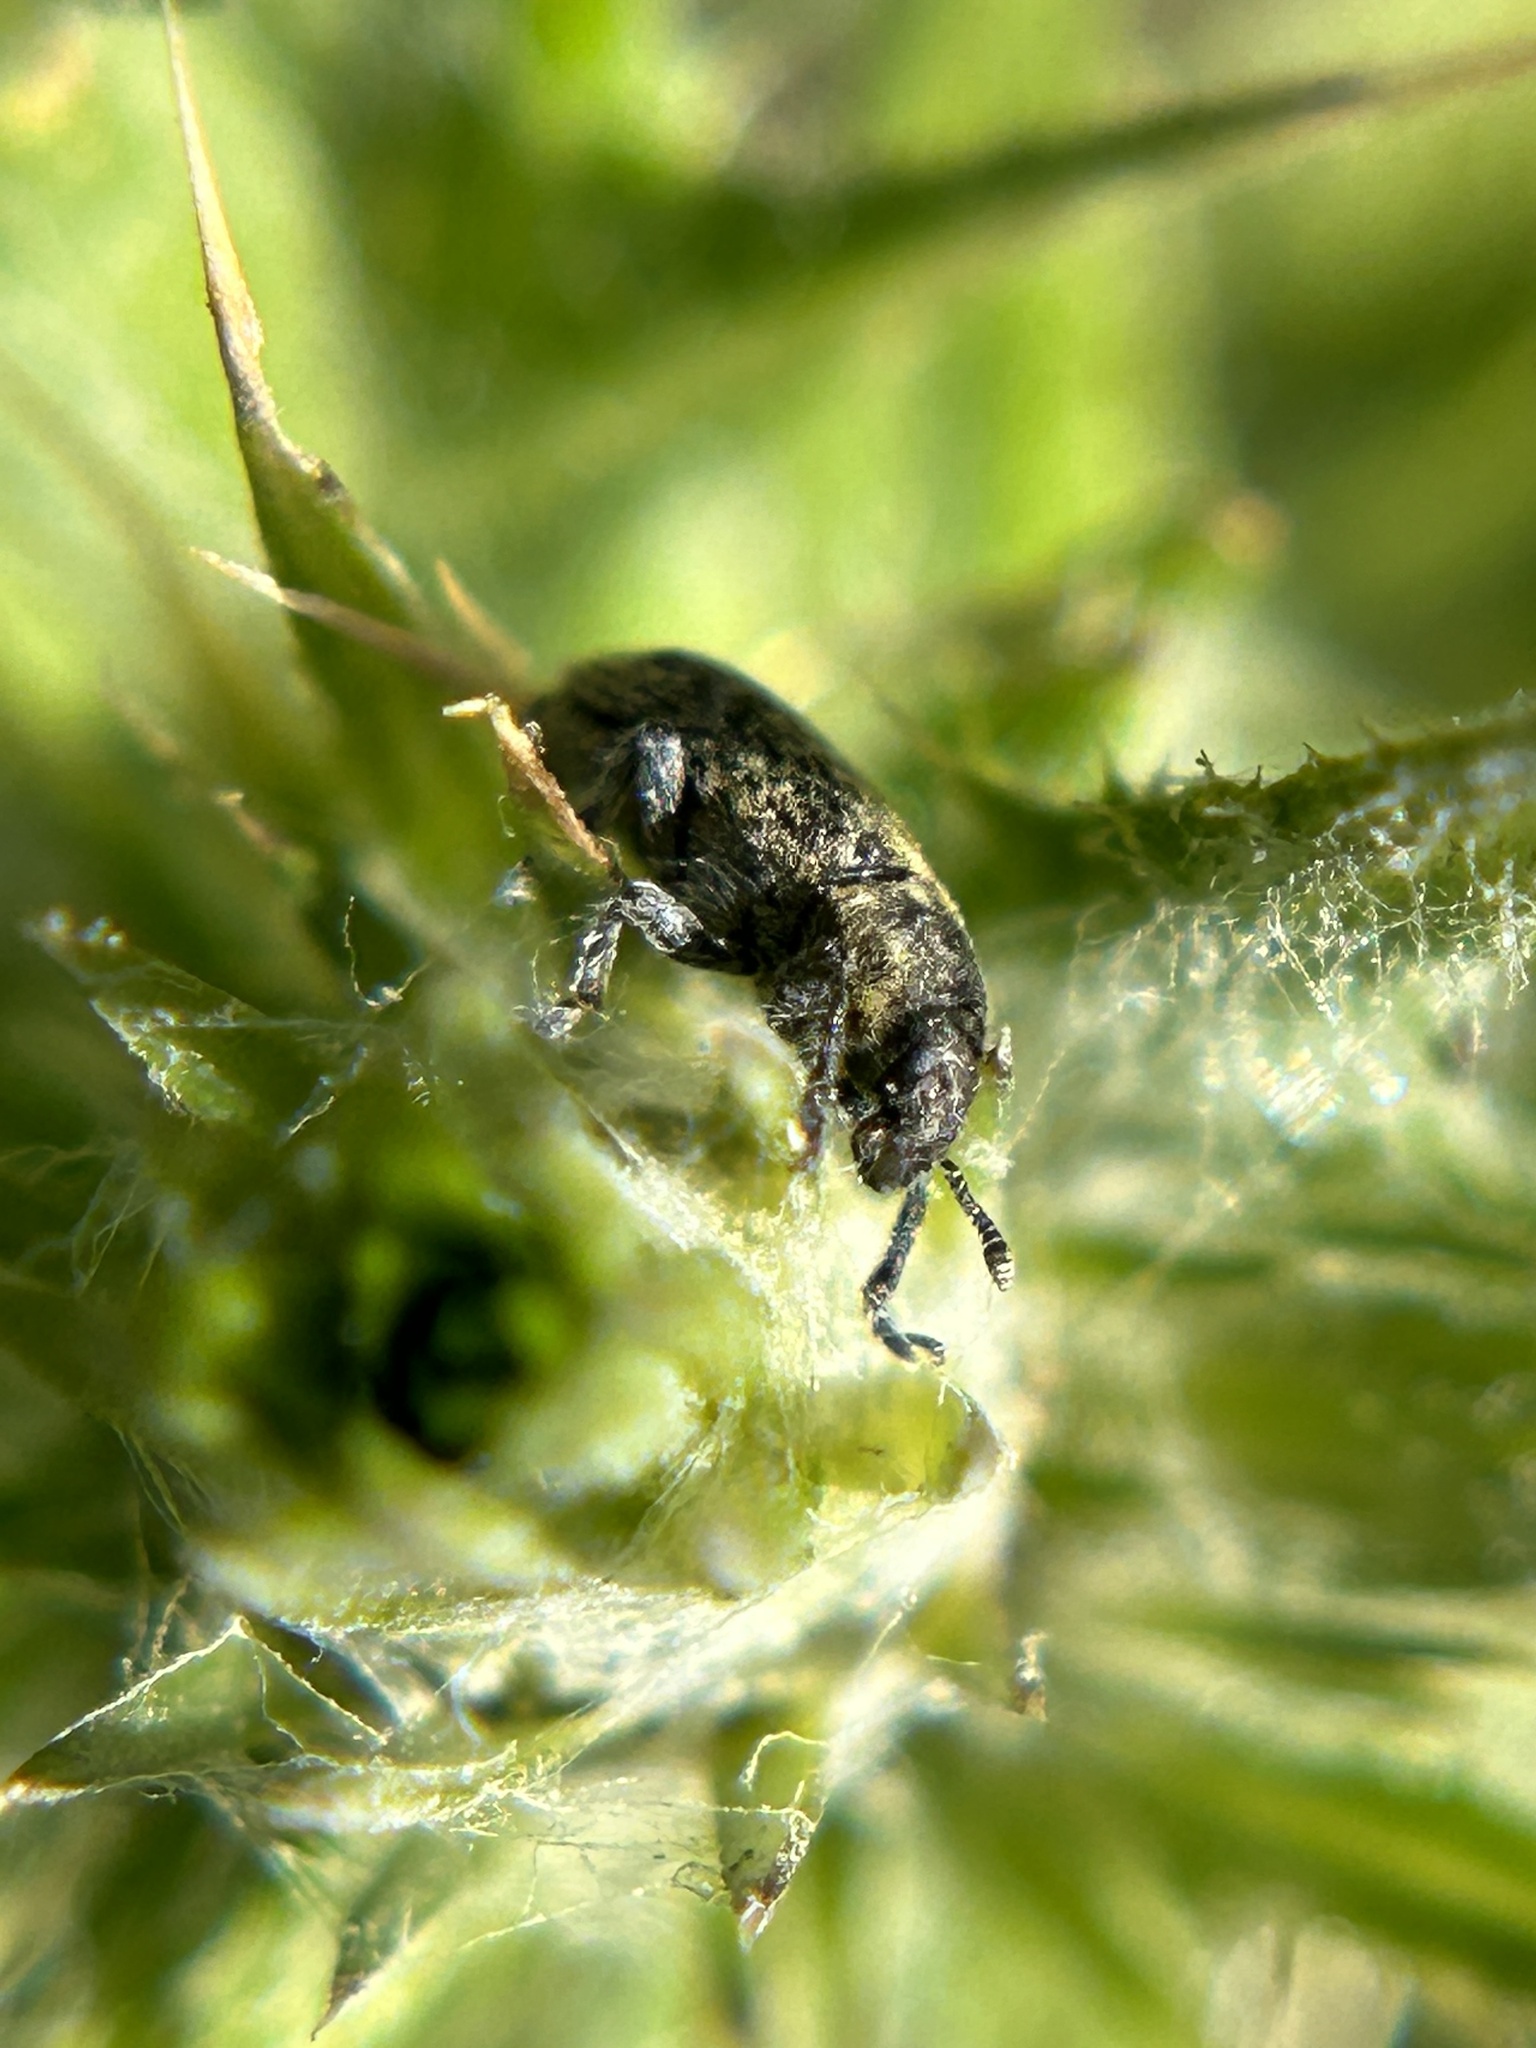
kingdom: Animalia
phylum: Arthropoda
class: Insecta
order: Coleoptera
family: Curculionidae
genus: Rhinocyllus
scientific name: Rhinocyllus conicus
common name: Weevil
